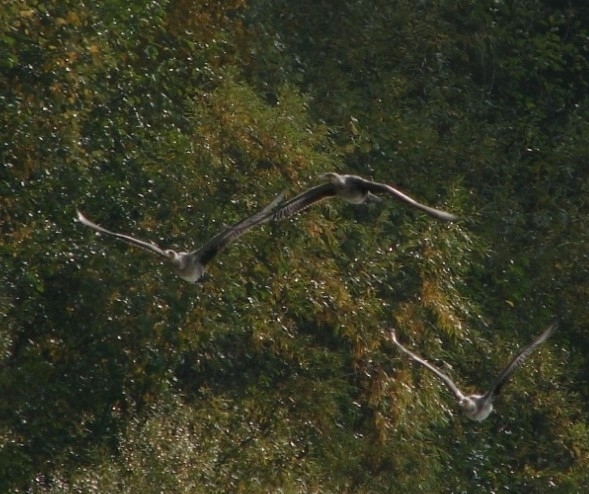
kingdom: Animalia
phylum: Chordata
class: Aves
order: Suliformes
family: Phalacrocoracidae
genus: Phalacrocorax
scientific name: Phalacrocorax carbo
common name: Great cormorant
